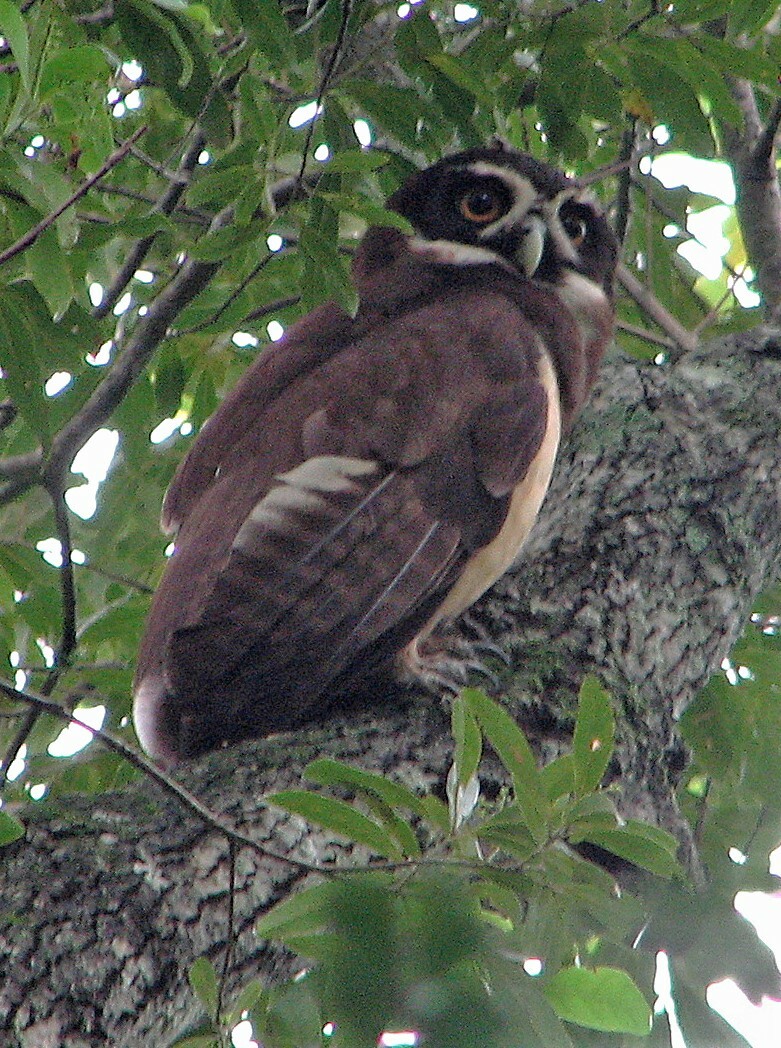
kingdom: Animalia
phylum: Chordata
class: Aves
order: Strigiformes
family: Strigidae
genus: Pulsatrix
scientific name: Pulsatrix perspicillata
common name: Spectacled owl
